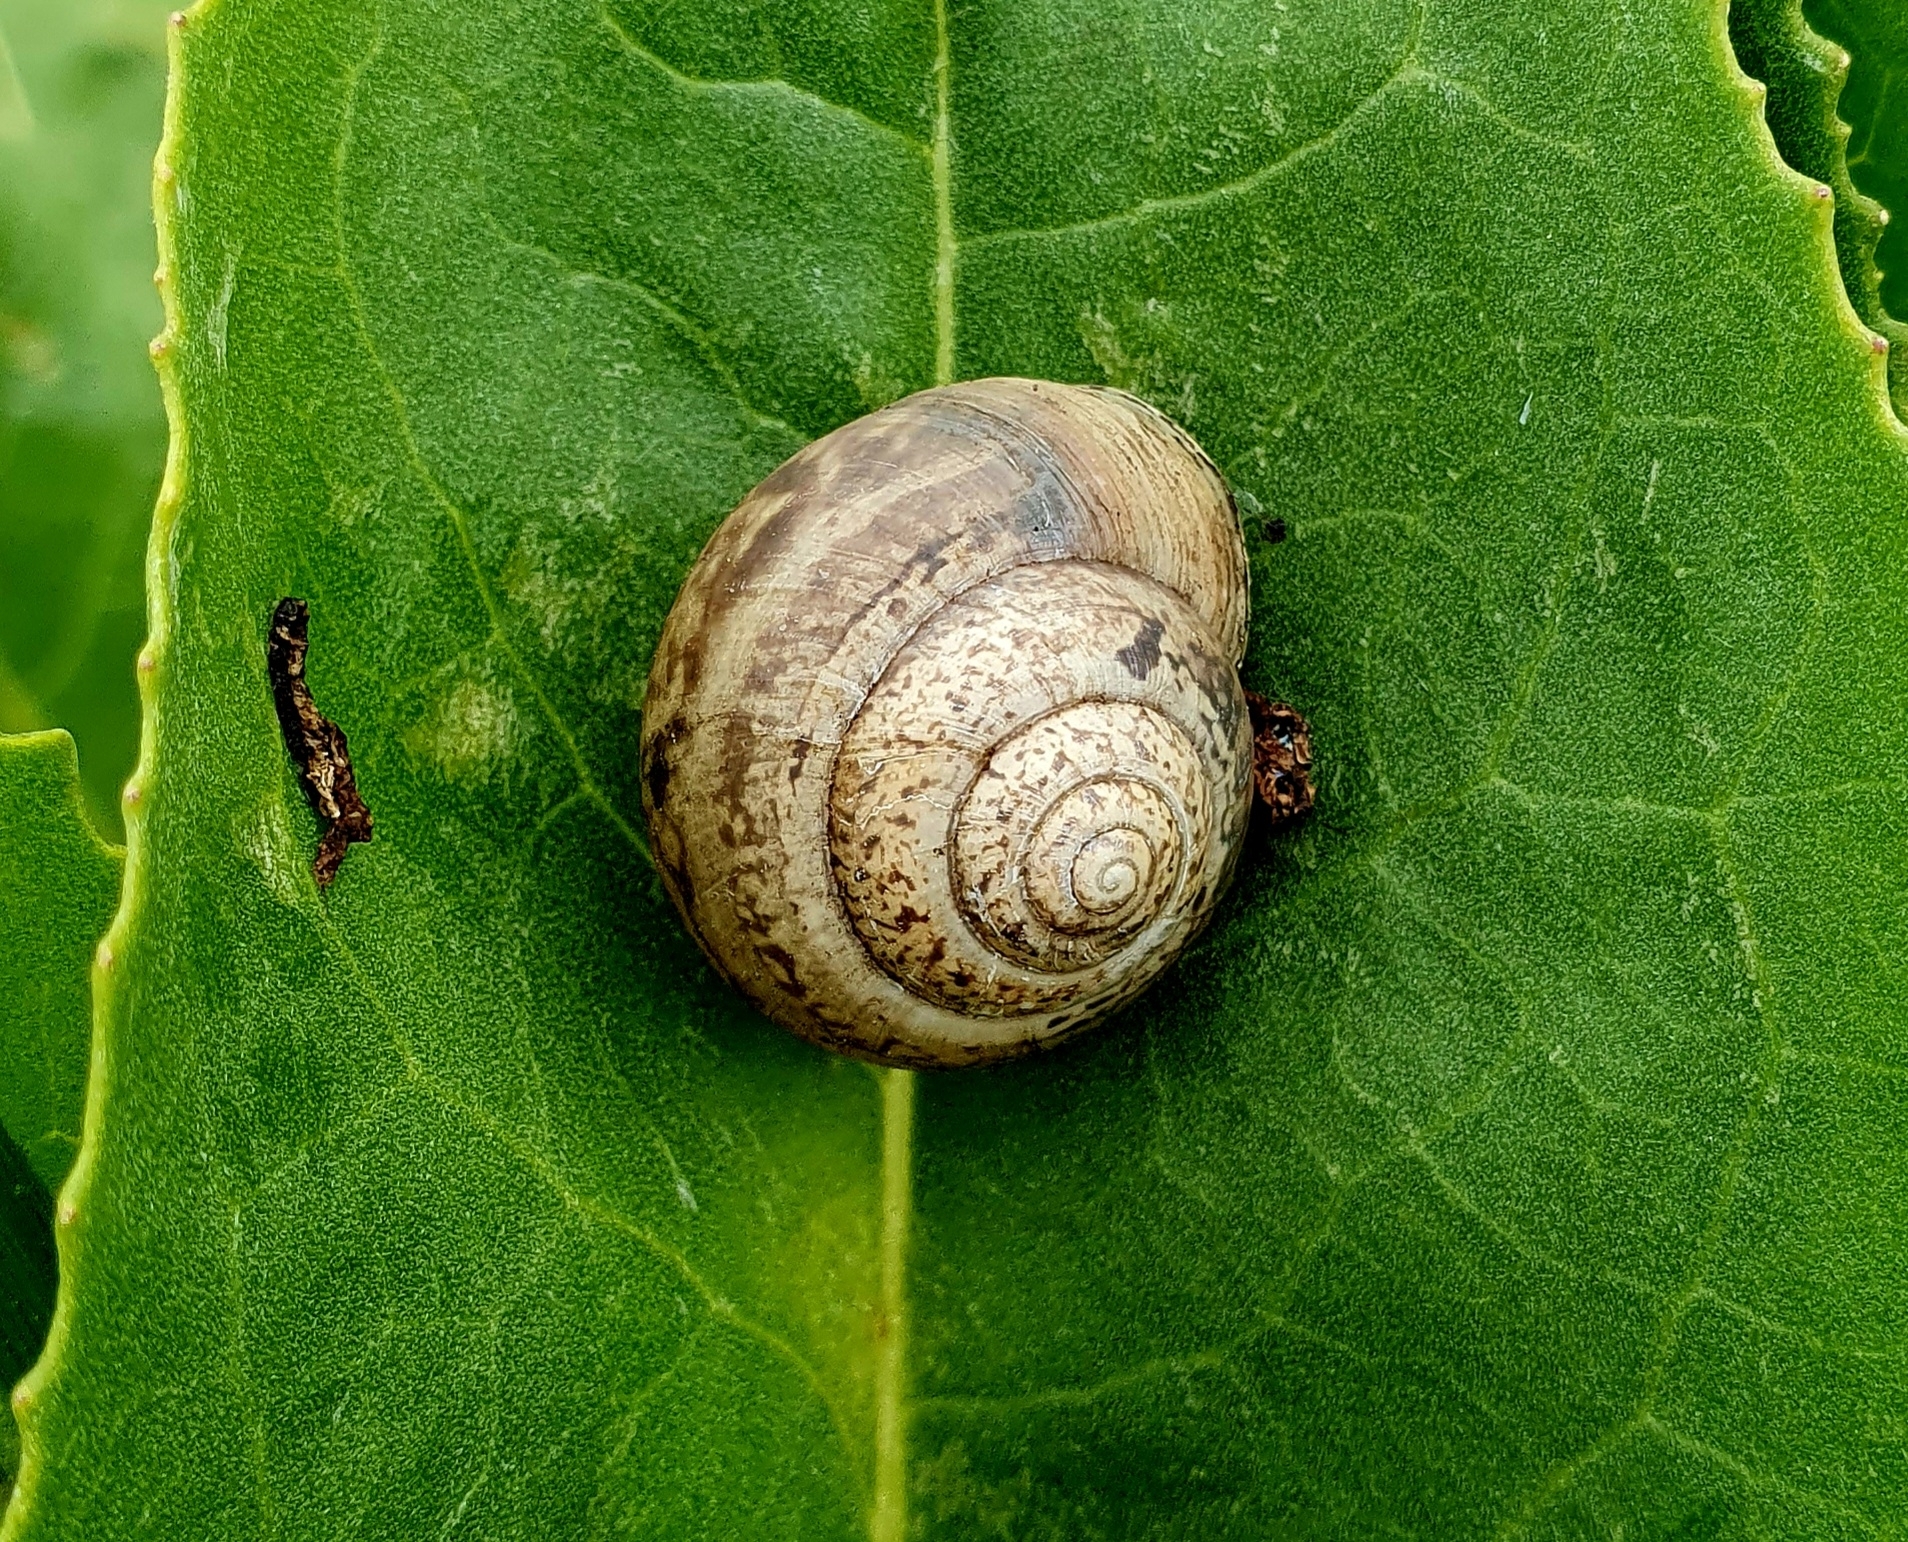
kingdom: Animalia
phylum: Mollusca
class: Gastropoda
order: Stylommatophora
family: Camaenidae
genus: Fruticicola
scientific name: Fruticicola fruticum
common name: Bush snail
